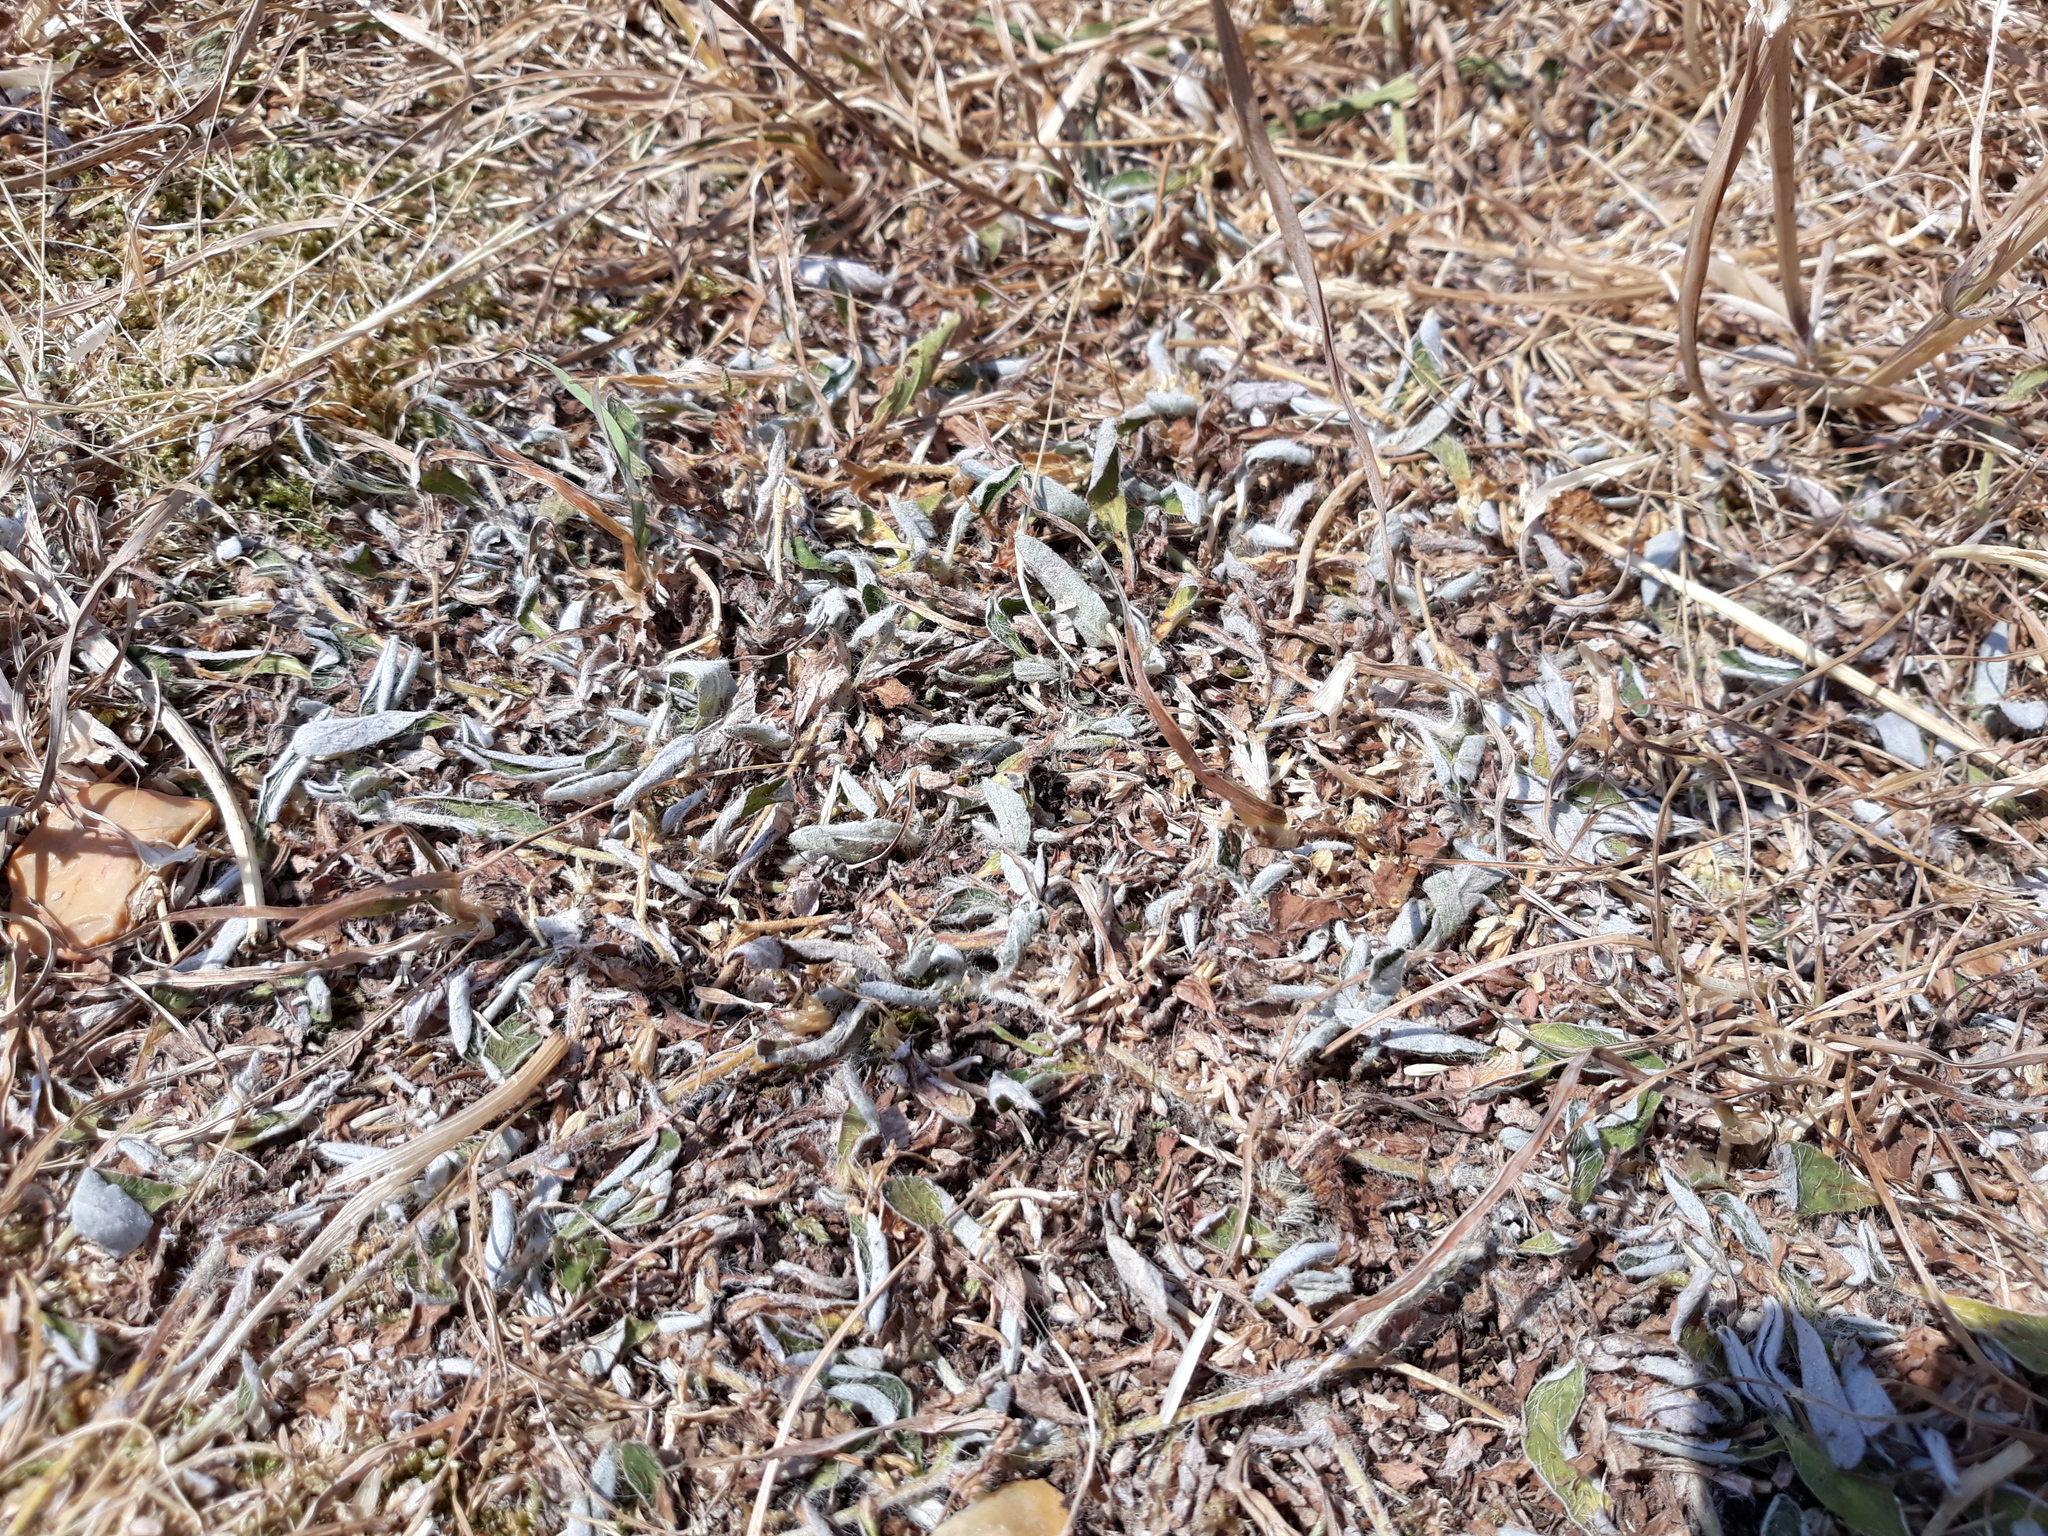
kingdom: Plantae
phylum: Tracheophyta
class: Magnoliopsida
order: Asterales
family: Asteraceae
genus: Pilosella
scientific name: Pilosella officinarum
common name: Mouse-ear hawkweed
